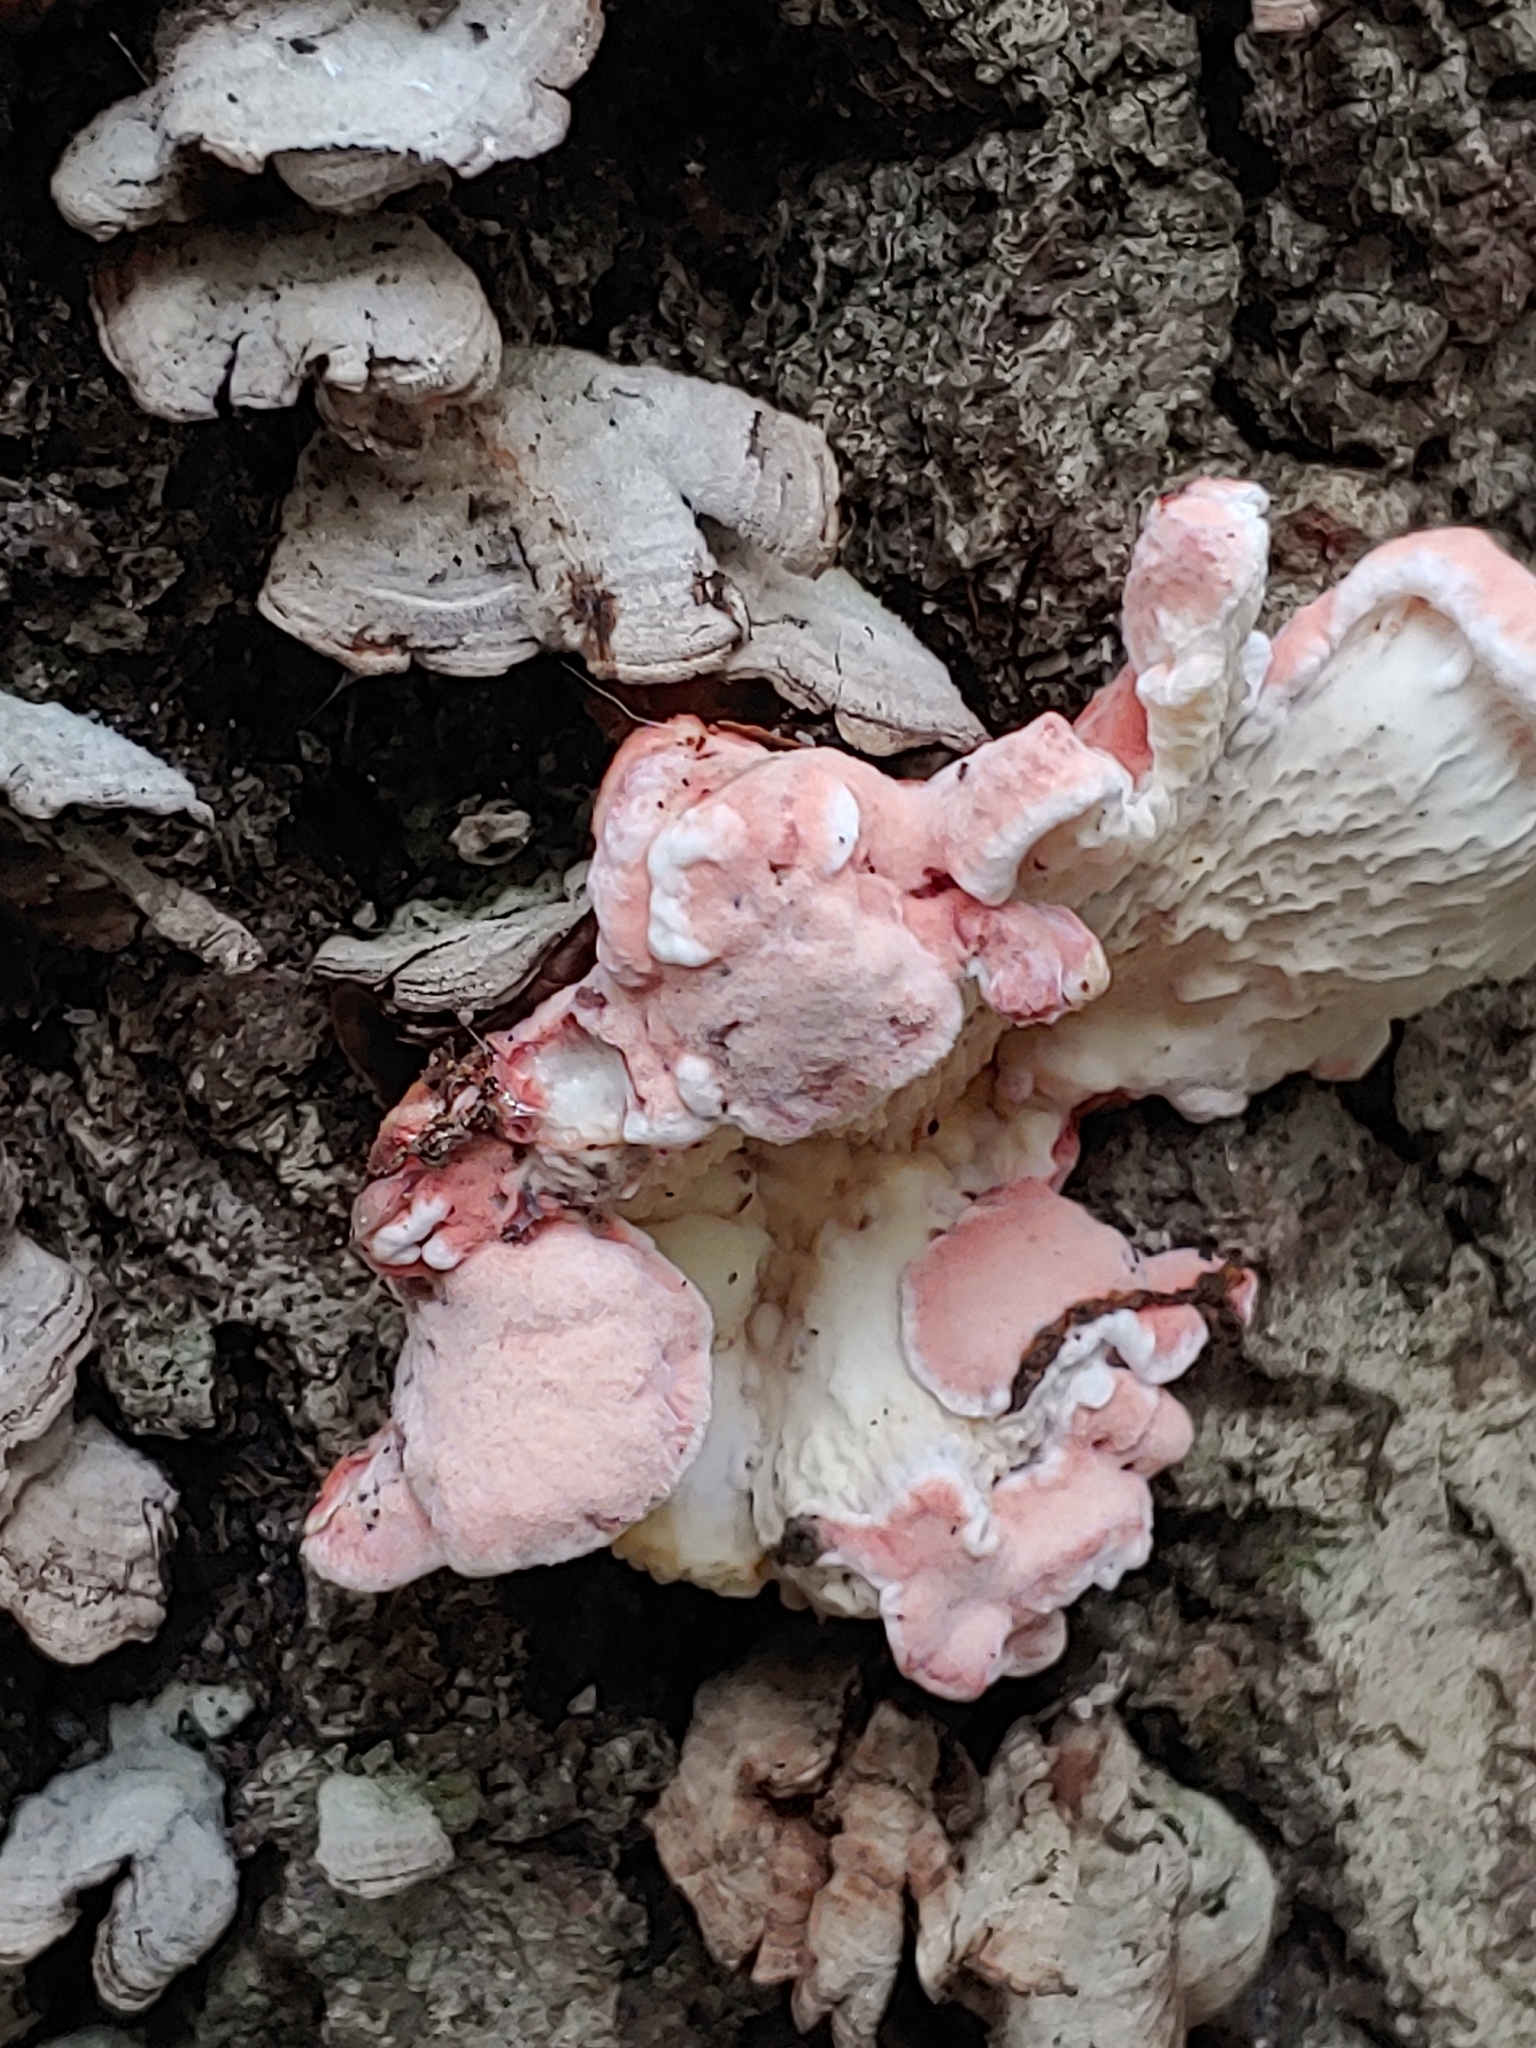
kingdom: Fungi
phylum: Basidiomycota
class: Agaricomycetes
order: Polyporales
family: Irpicaceae
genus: Byssomerulius
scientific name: Byssomerulius incarnatus
